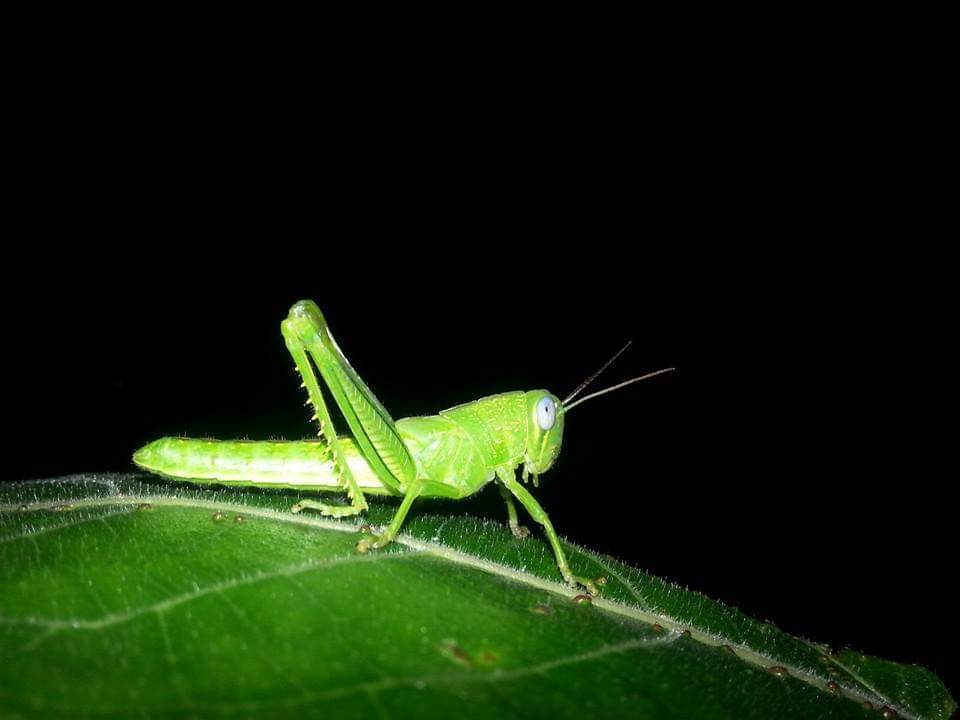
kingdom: Animalia
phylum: Arthropoda
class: Insecta
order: Orthoptera
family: Acrididae
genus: Valanga
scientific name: Valanga irregularis
